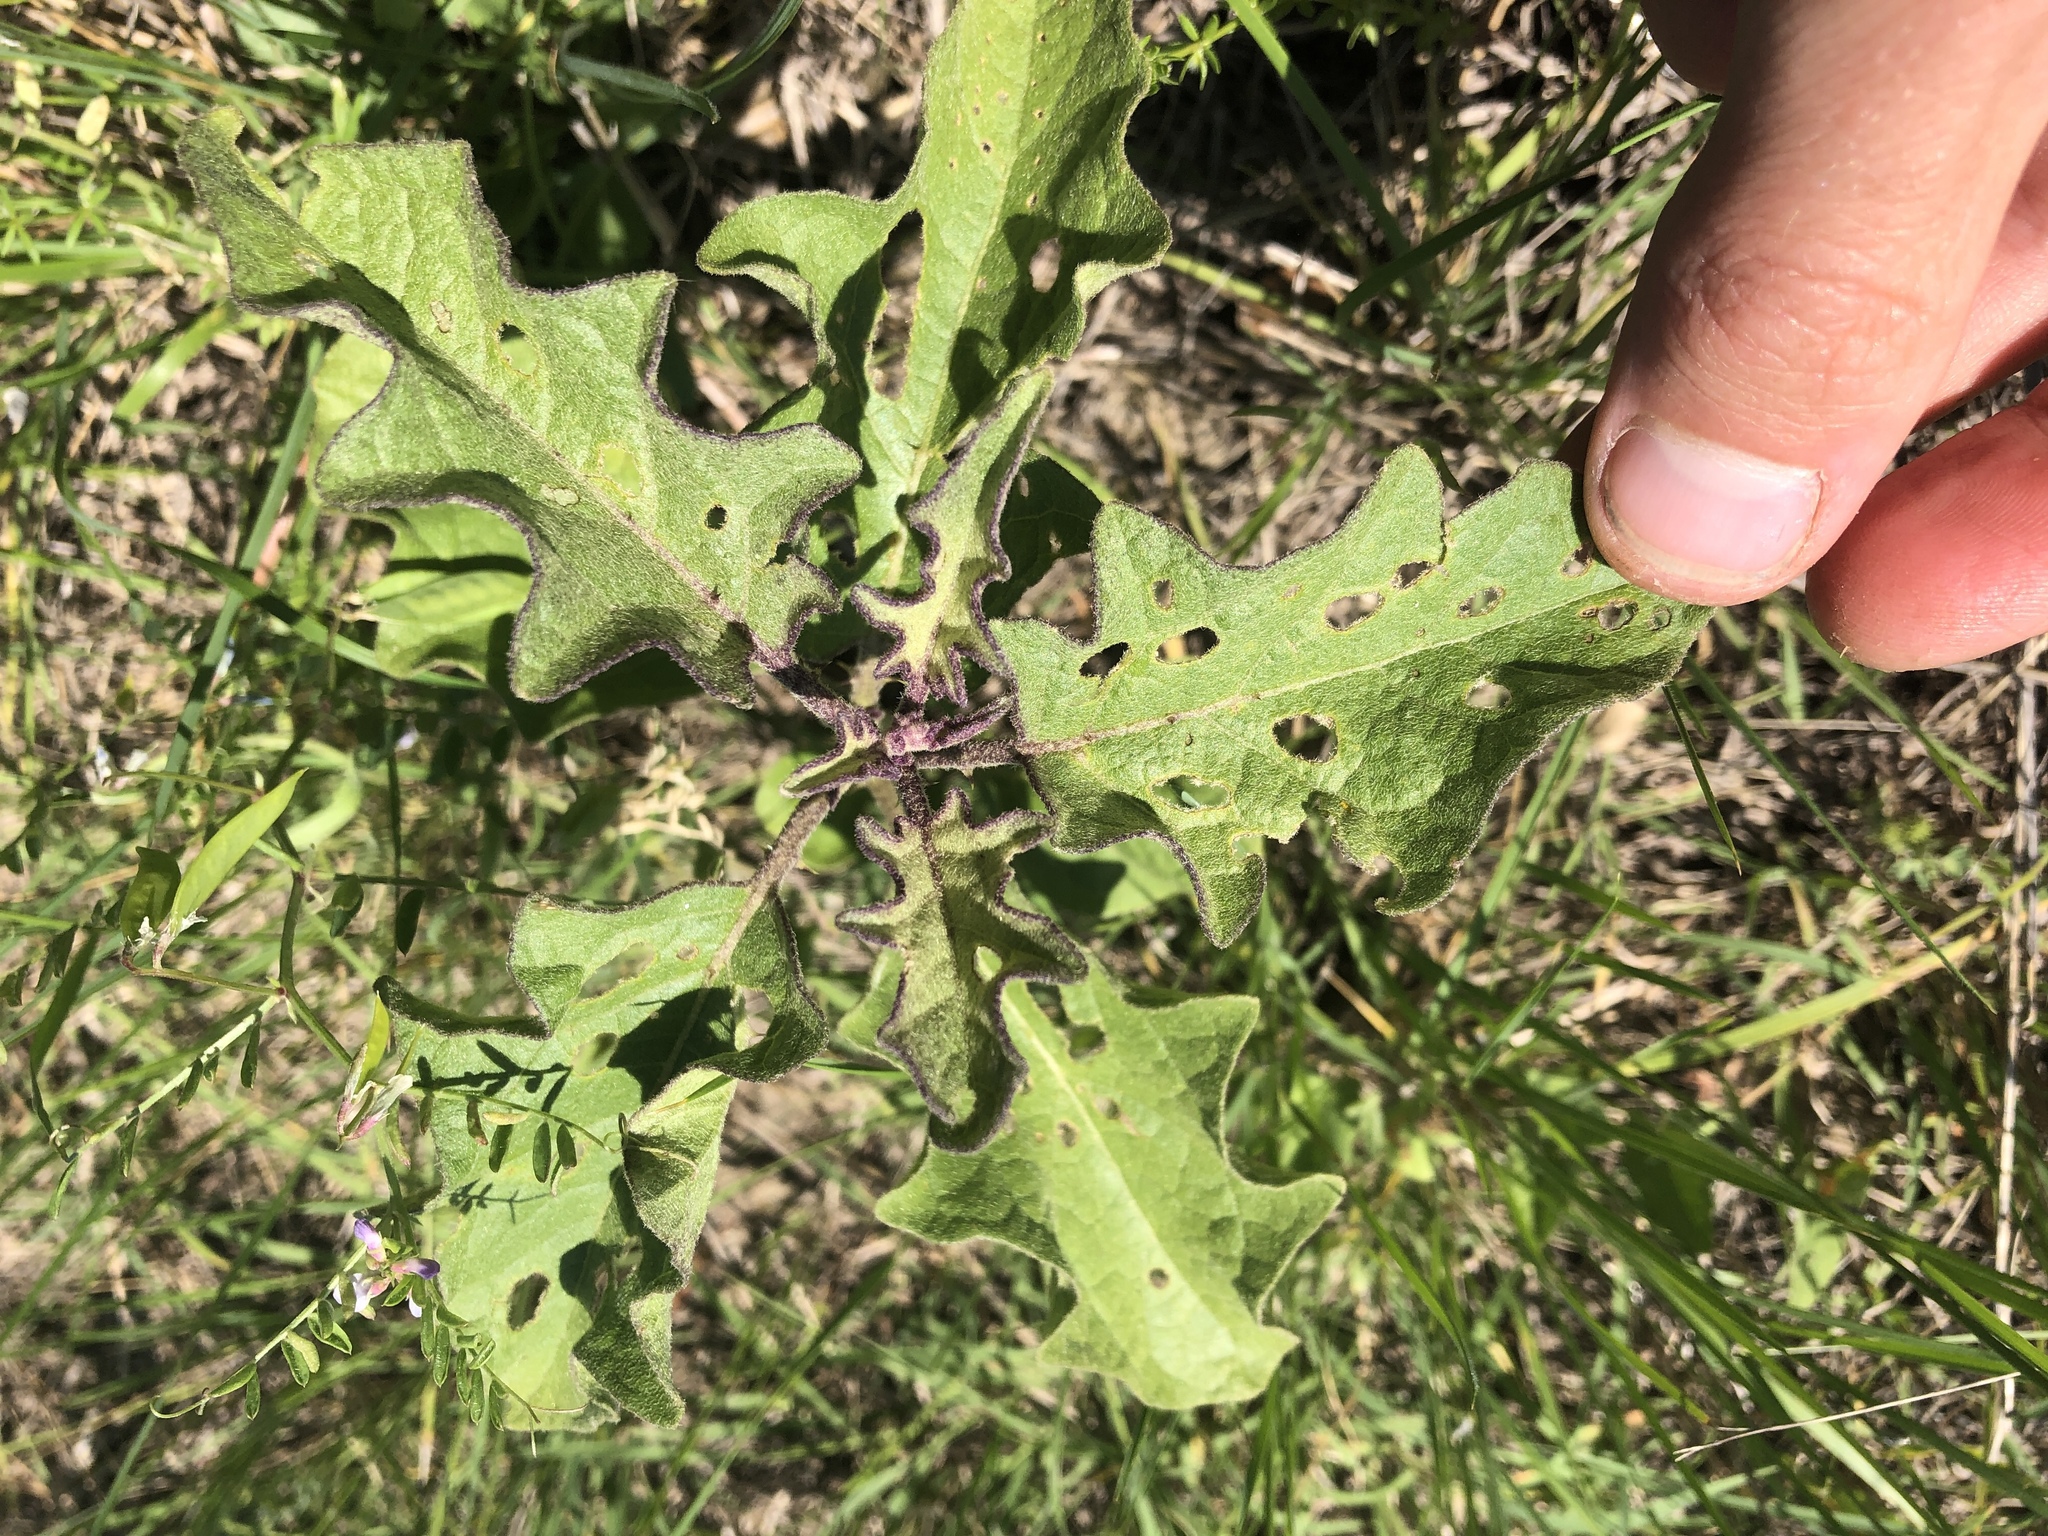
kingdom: Plantae
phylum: Tracheophyta
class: Magnoliopsida
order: Solanales
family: Solanaceae
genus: Solanum
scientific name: Solanum dimidiatum
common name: Carolina horse-nettle
